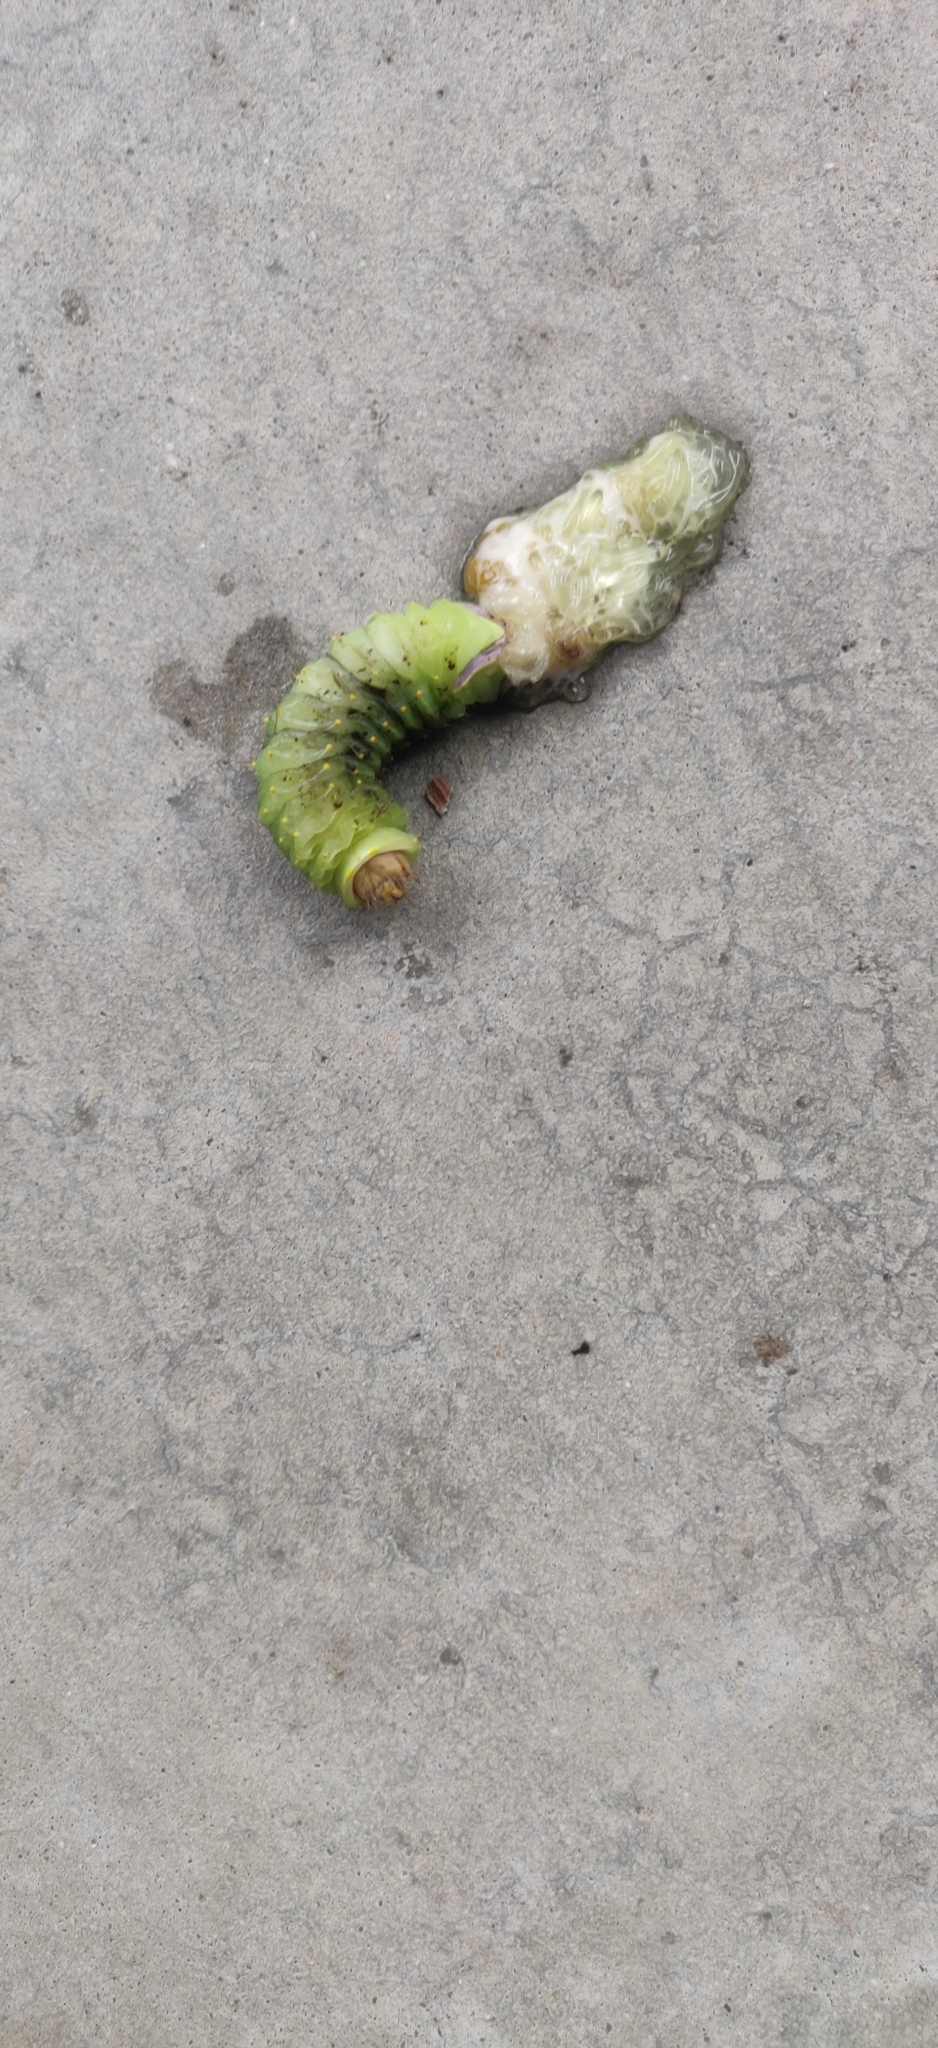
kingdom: Animalia
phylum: Arthropoda
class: Insecta
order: Lepidoptera
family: Saturniidae
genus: Antheraea
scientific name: Antheraea polyphemus
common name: Polyphemus moth
